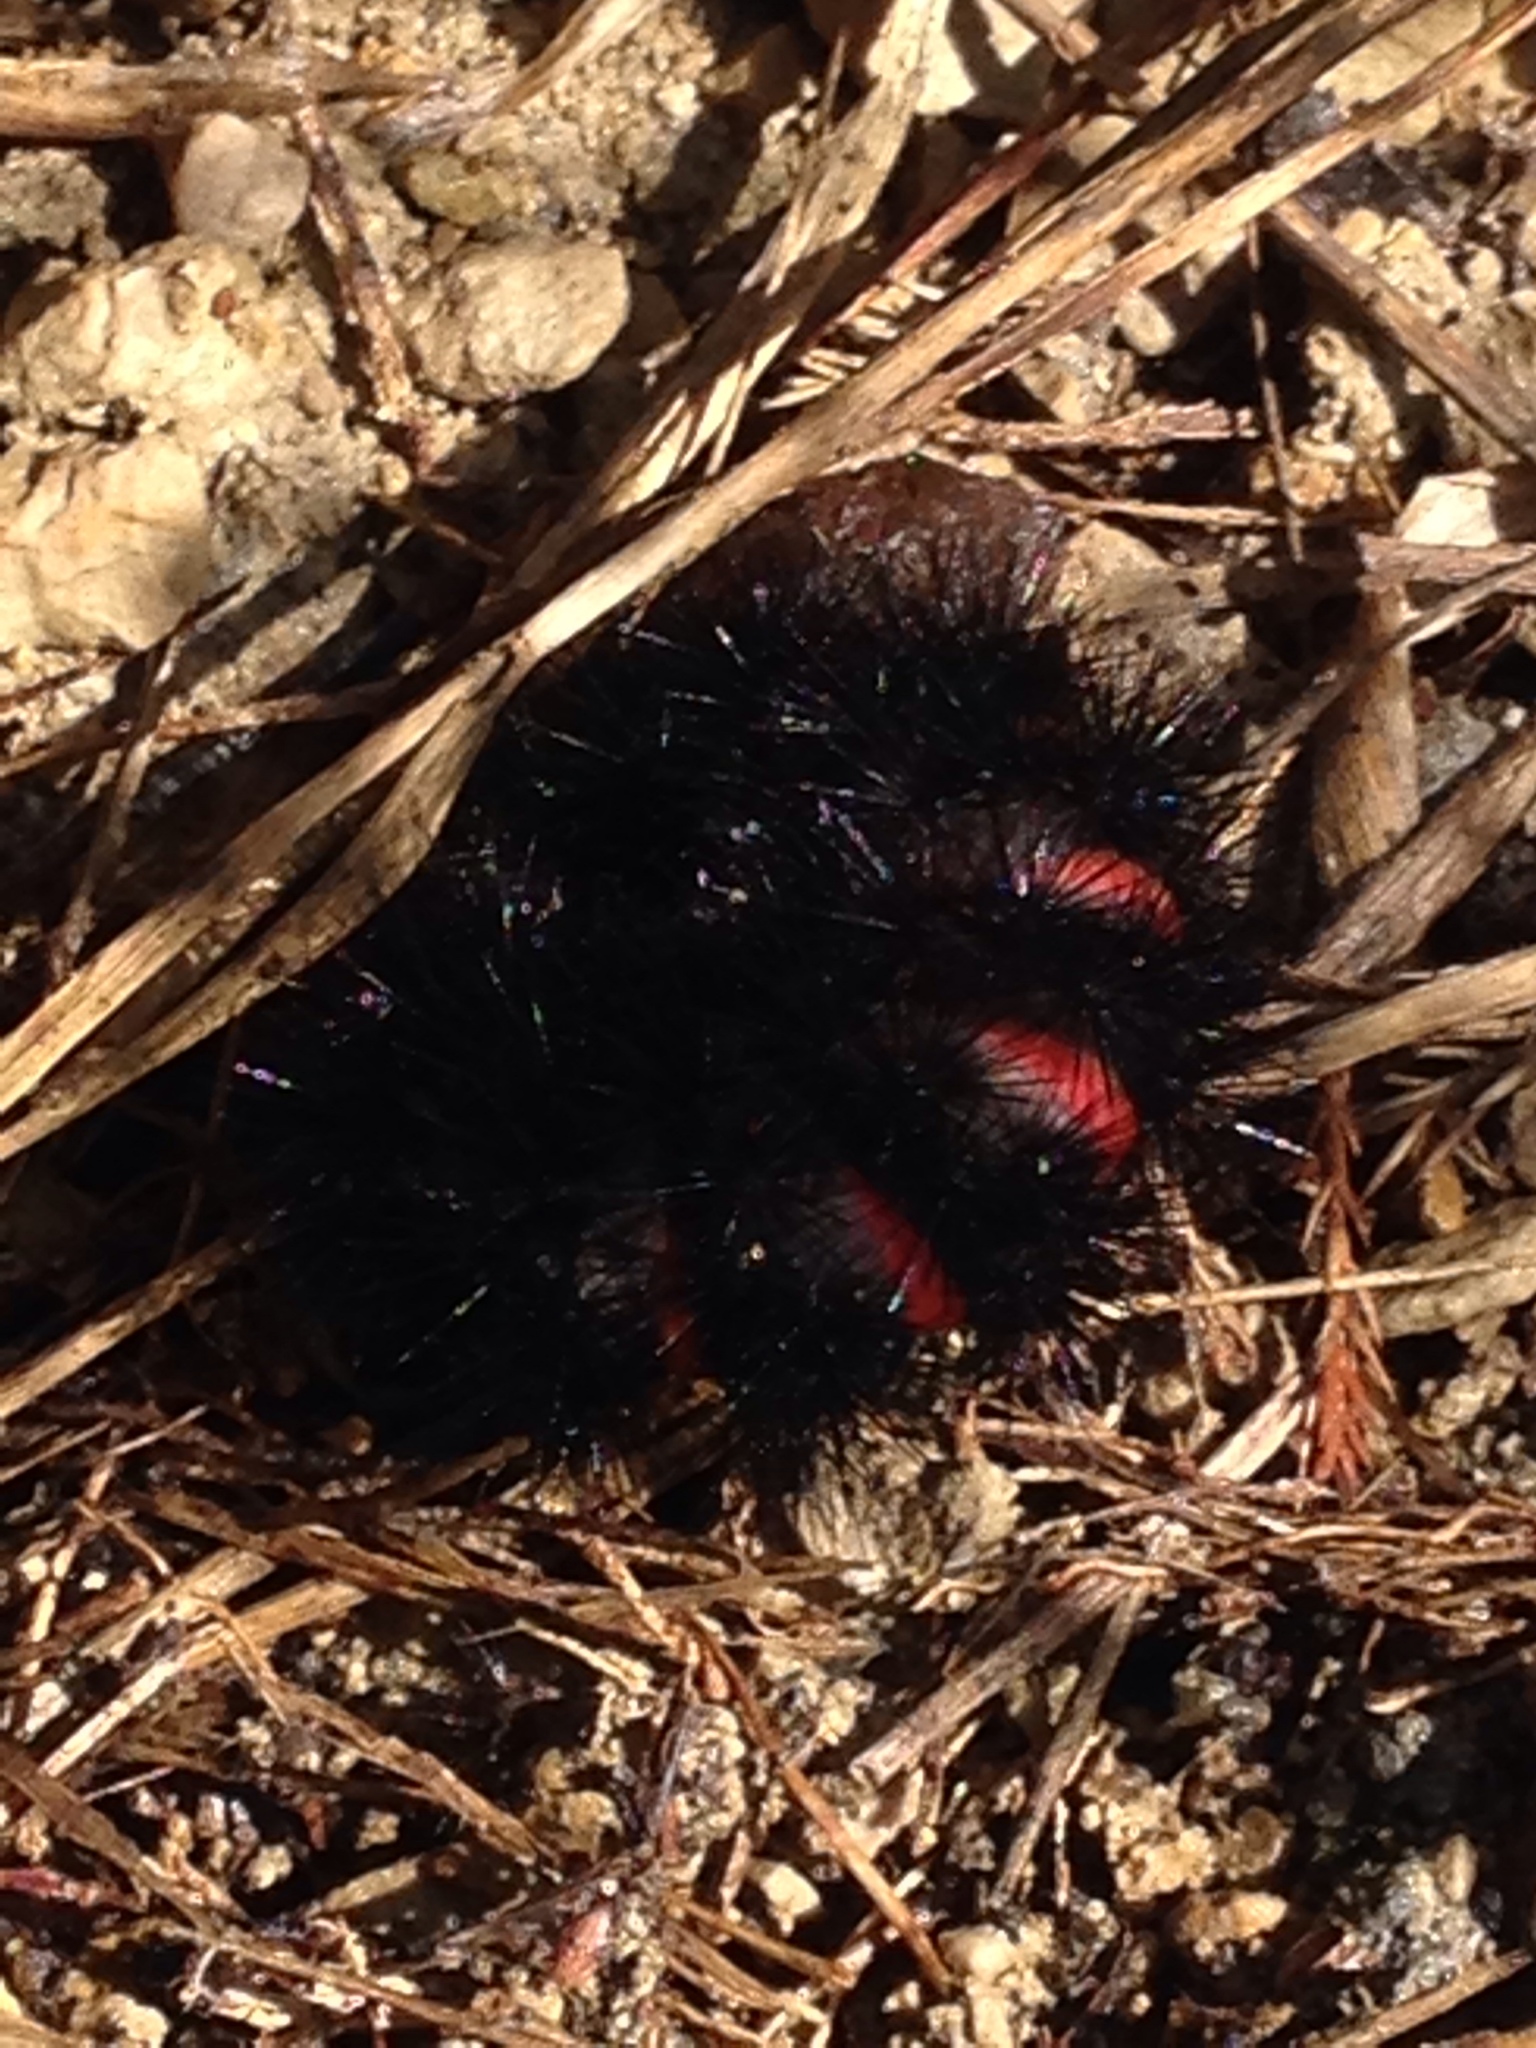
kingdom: Animalia
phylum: Arthropoda
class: Insecta
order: Lepidoptera
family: Erebidae
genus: Hypercompe
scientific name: Hypercompe scribonia
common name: Giant leopard moth
